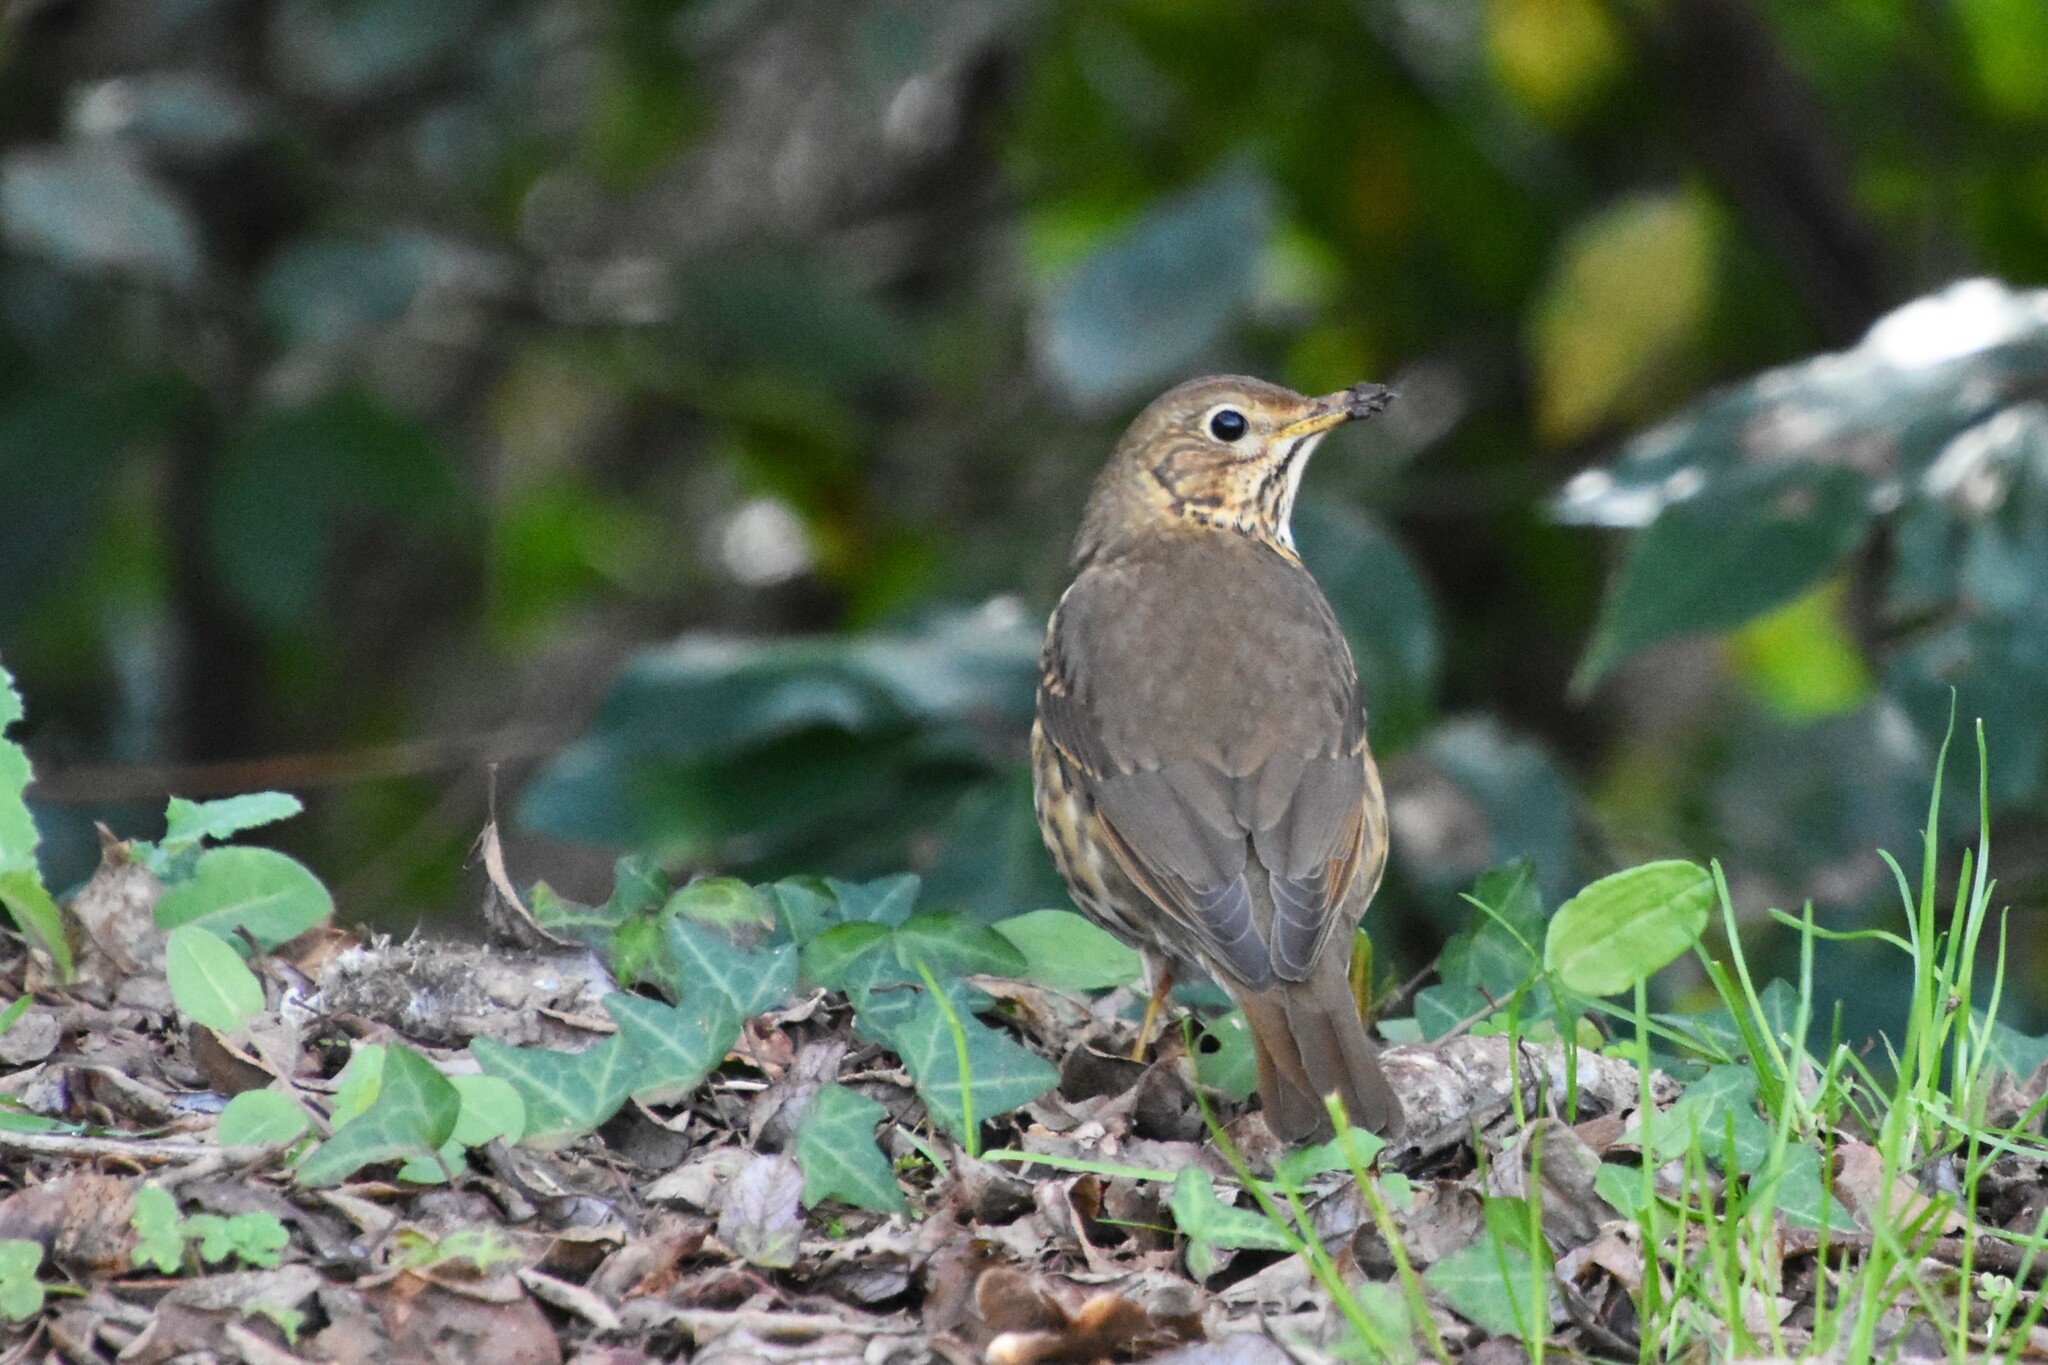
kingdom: Animalia
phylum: Chordata
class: Aves
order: Passeriformes
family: Turdidae
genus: Turdus
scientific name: Turdus philomelos
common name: Song thrush
